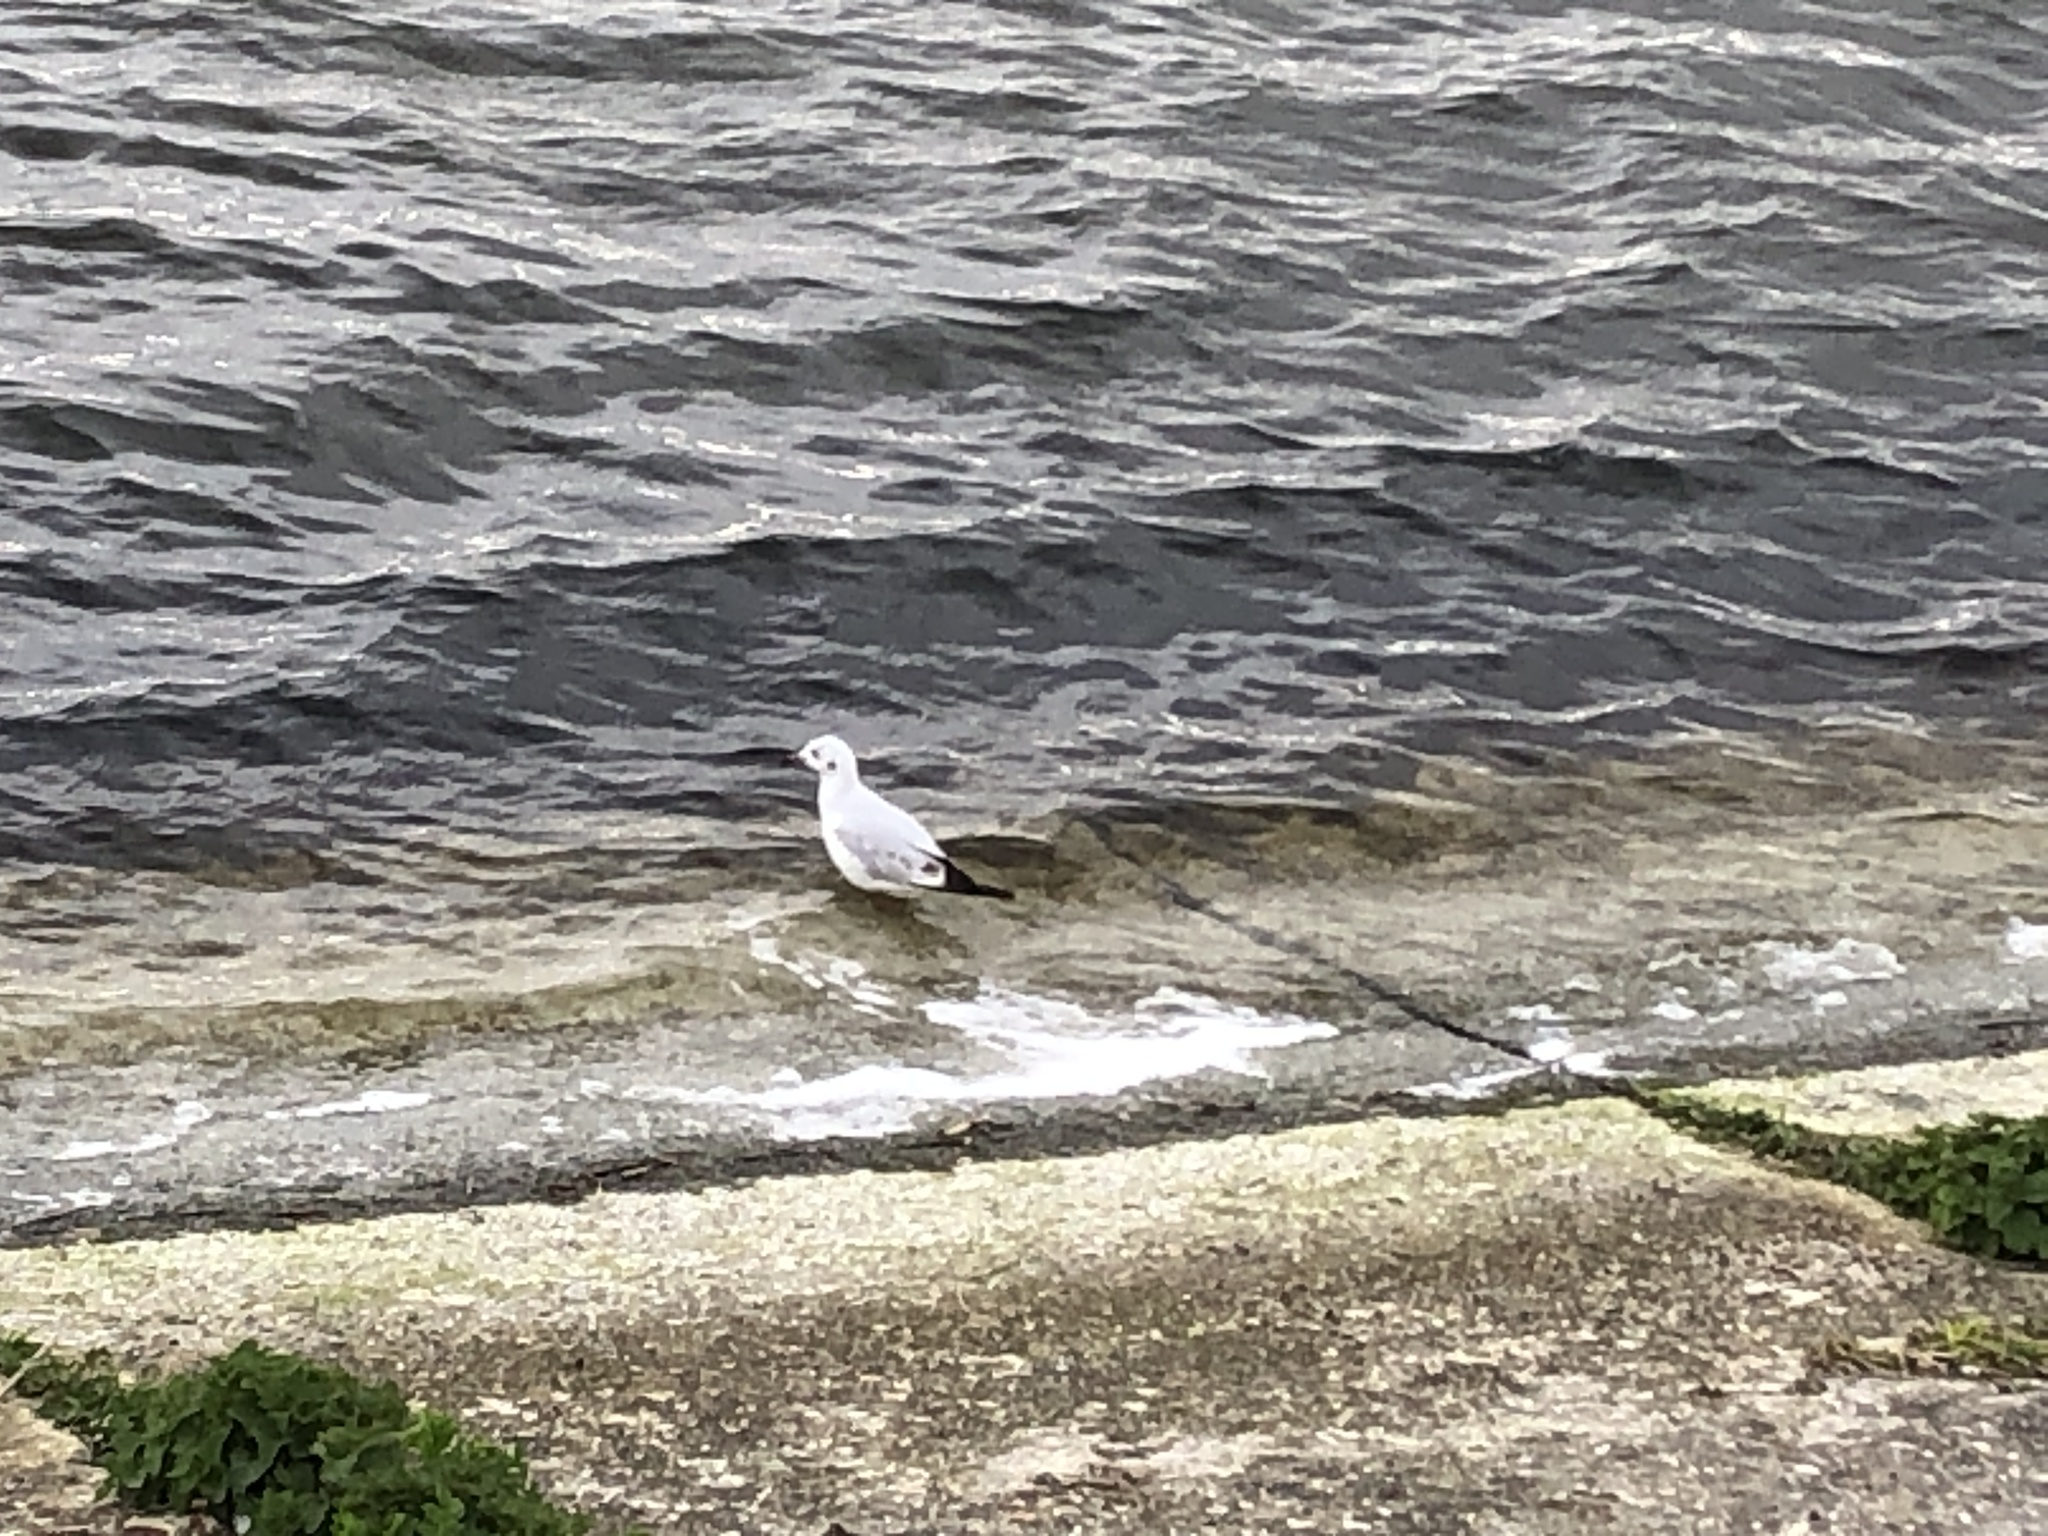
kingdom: Animalia
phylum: Chordata
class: Aves
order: Charadriiformes
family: Laridae
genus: Chroicocephalus
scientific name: Chroicocephalus ridibundus
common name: Black-headed gull
